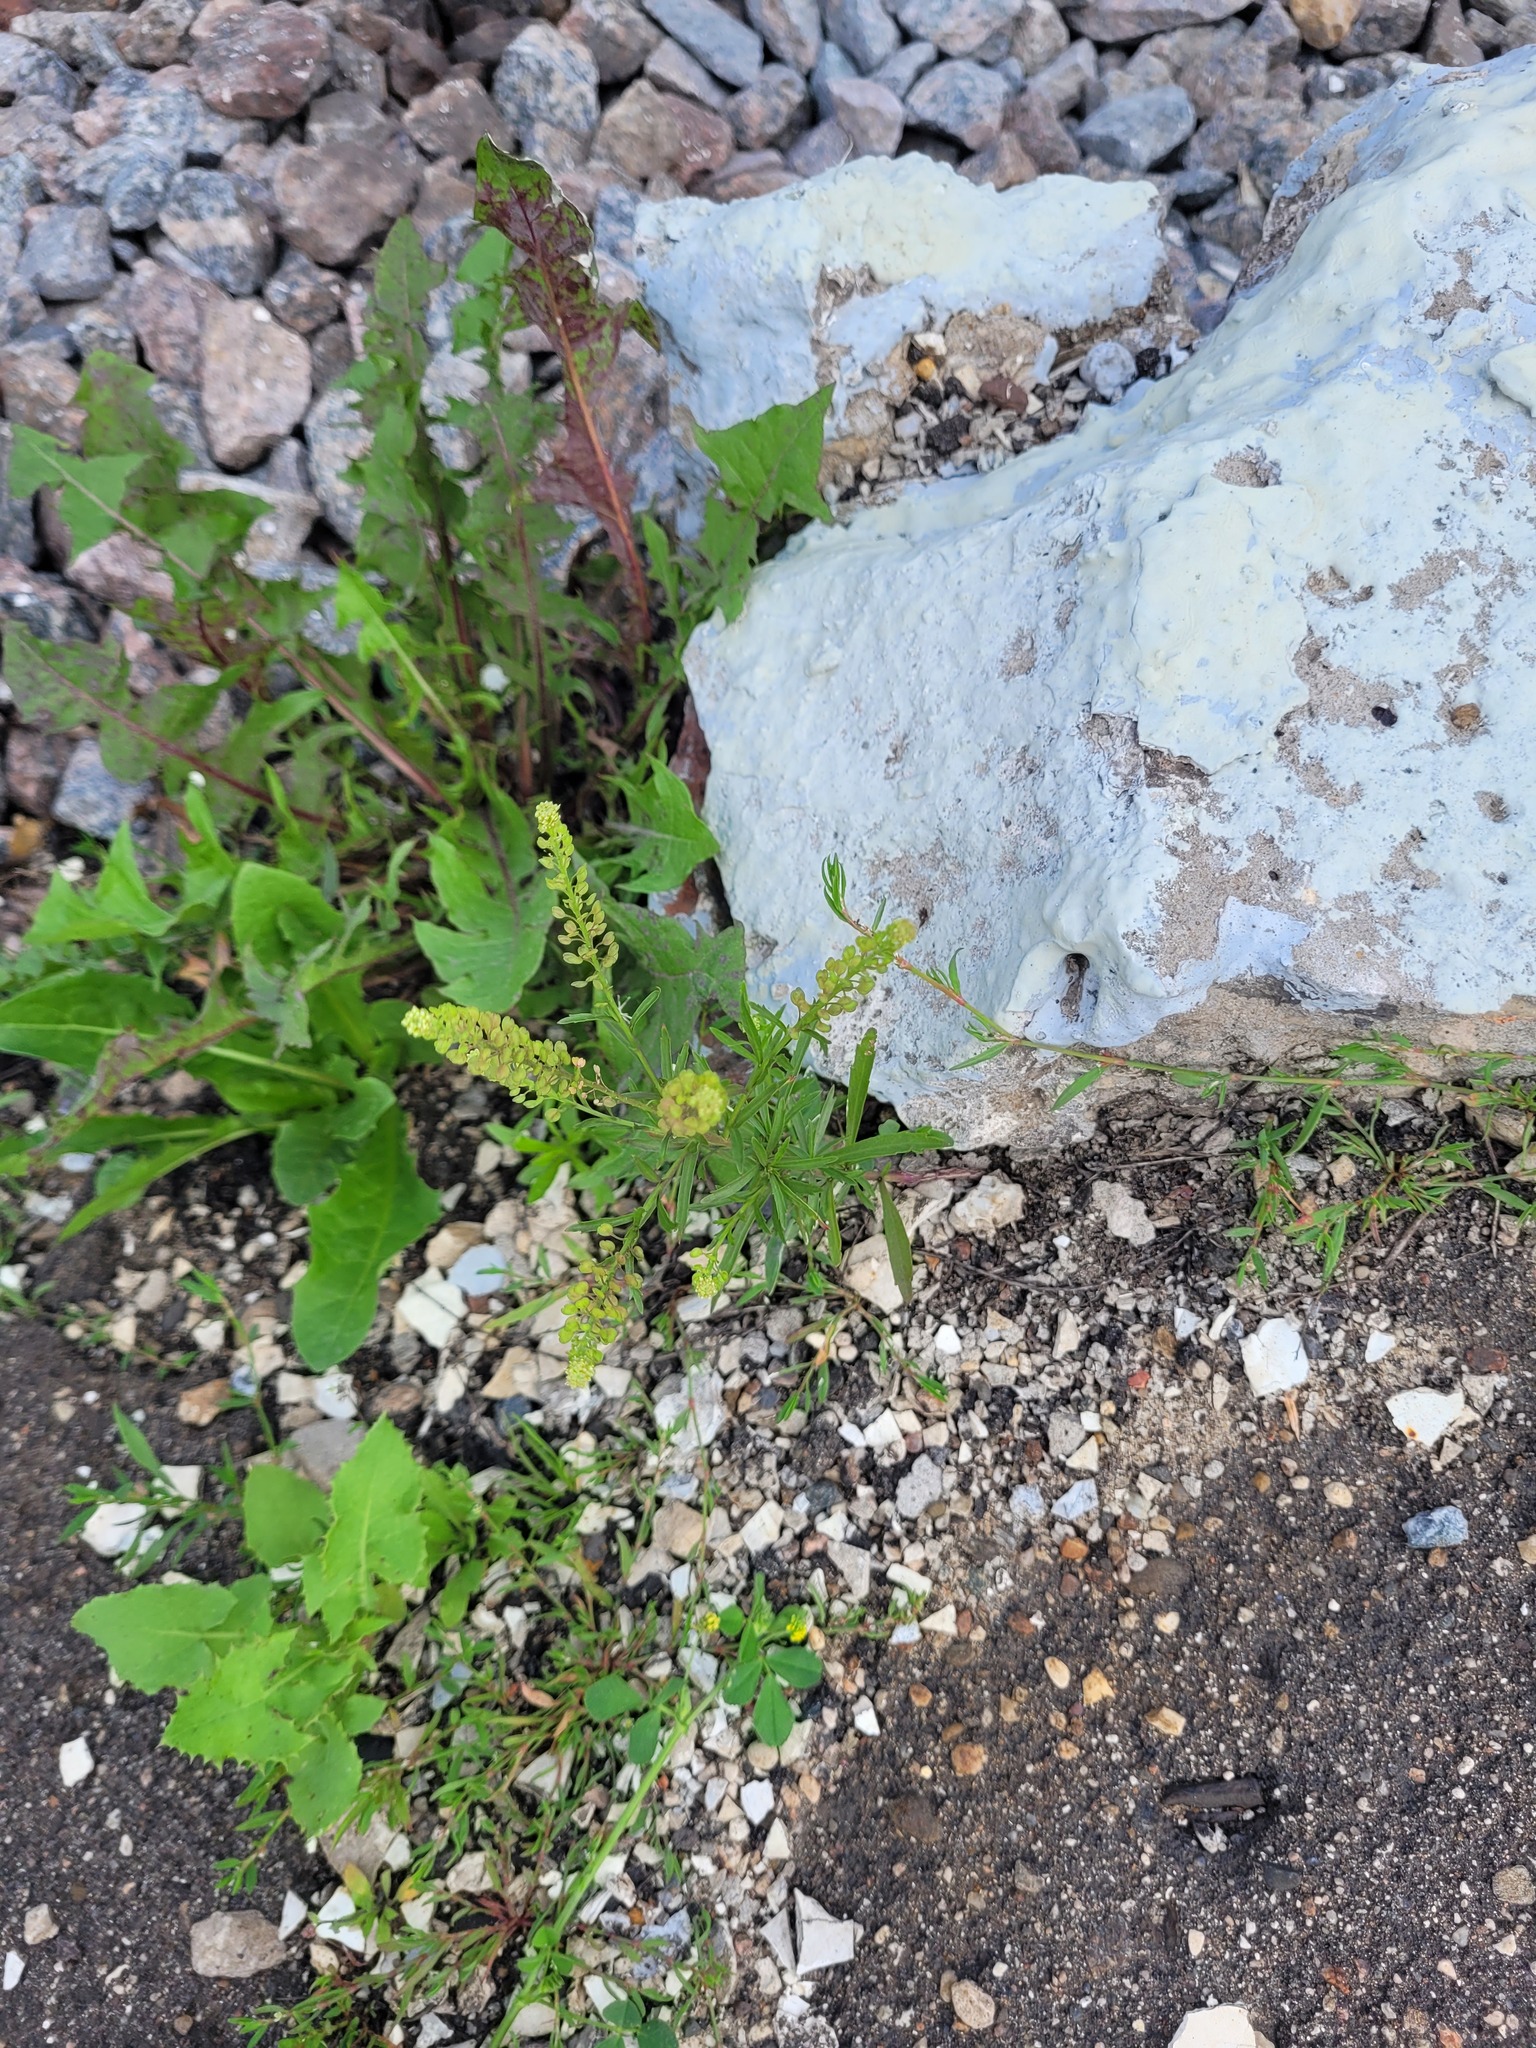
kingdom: Plantae
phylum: Tracheophyta
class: Magnoliopsida
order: Brassicales
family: Brassicaceae
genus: Lepidium
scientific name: Lepidium densiflorum
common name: Miner's pepperwort
